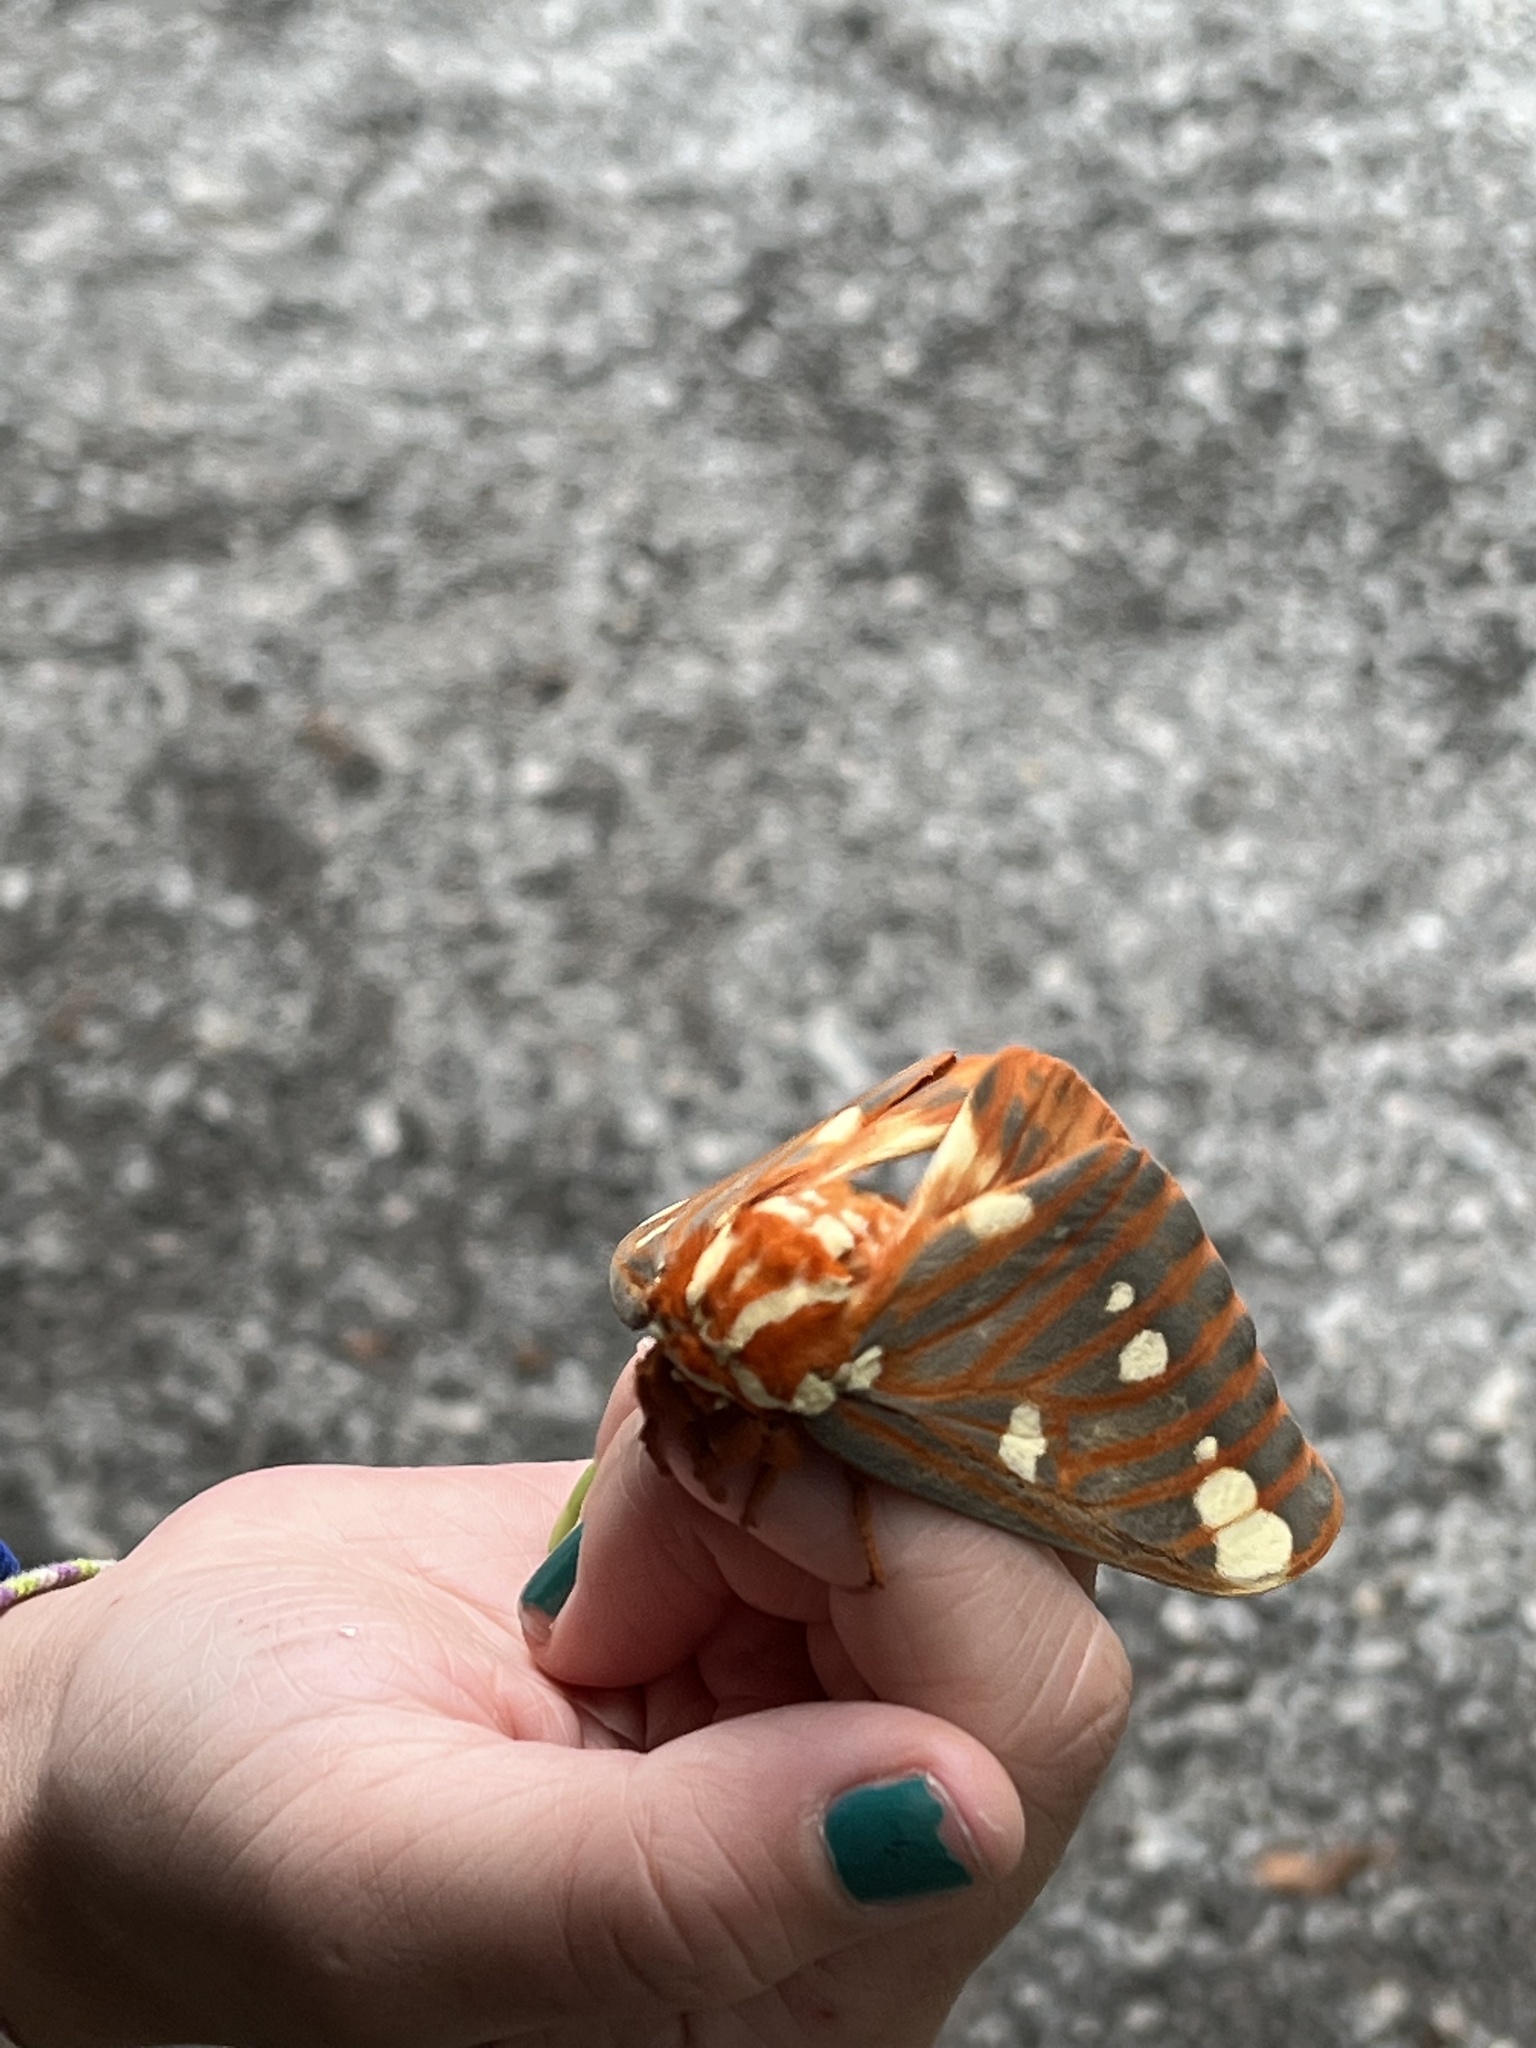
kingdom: Animalia
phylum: Arthropoda
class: Insecta
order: Lepidoptera
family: Saturniidae
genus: Citheronia
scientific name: Citheronia regalis
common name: Hickory horned devil
